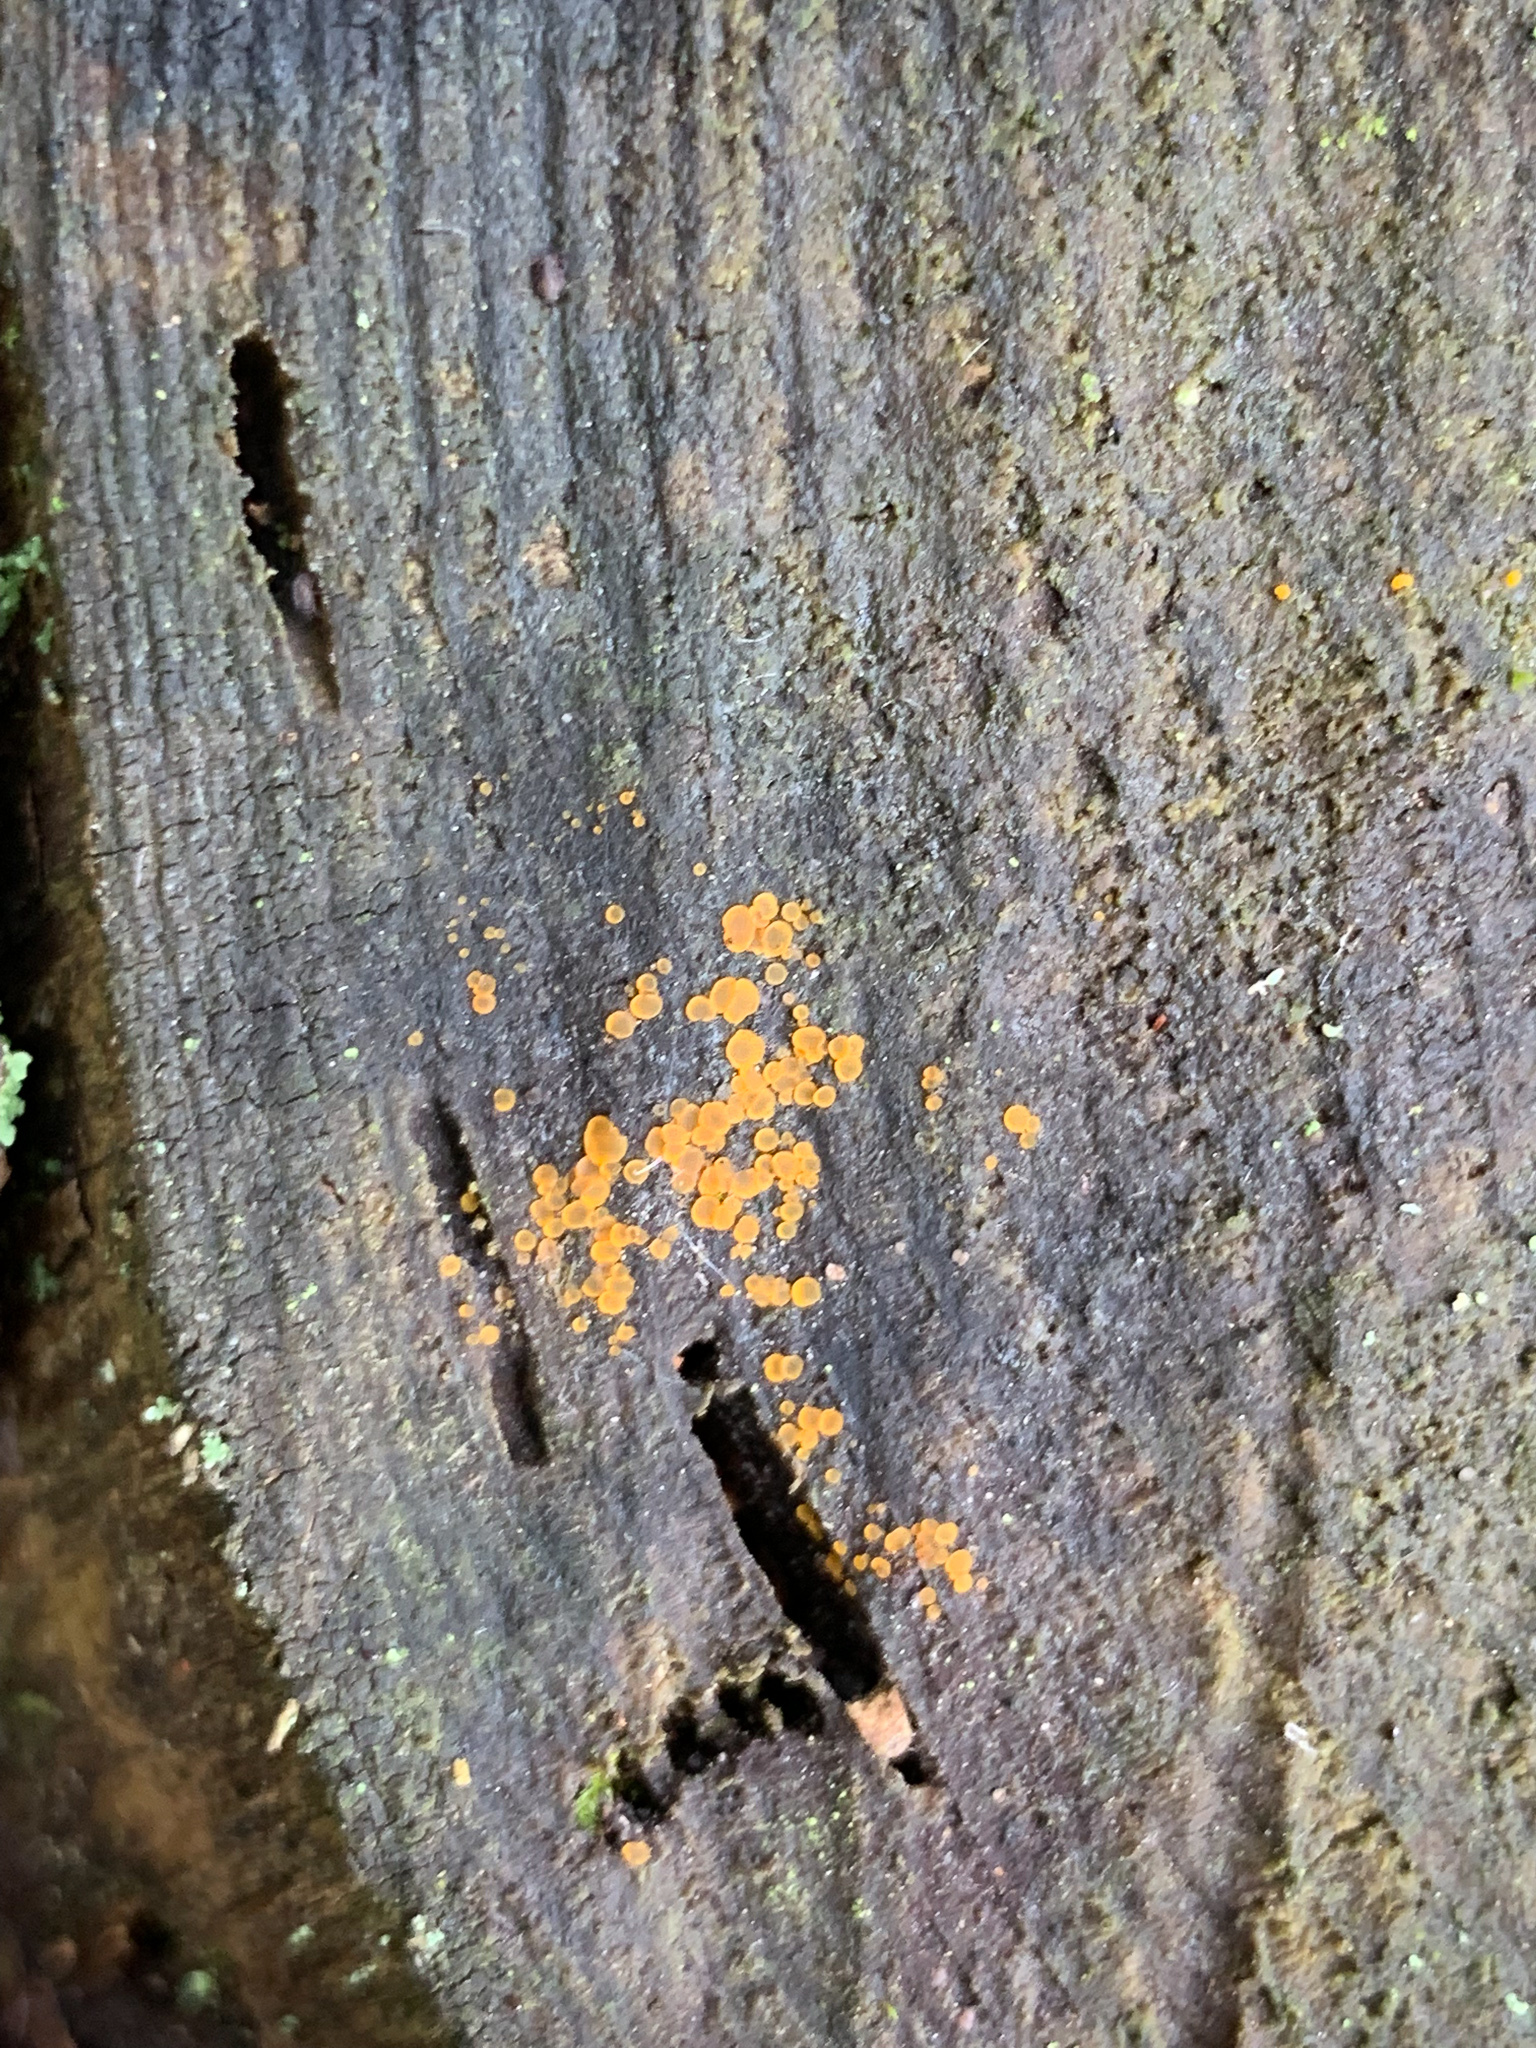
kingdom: Fungi
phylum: Ascomycota
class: Orbiliomycetes
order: Orbiliales
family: Orbiliaceae
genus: Orbilia
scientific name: Orbilia xanthostigma
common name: Common glasscup
